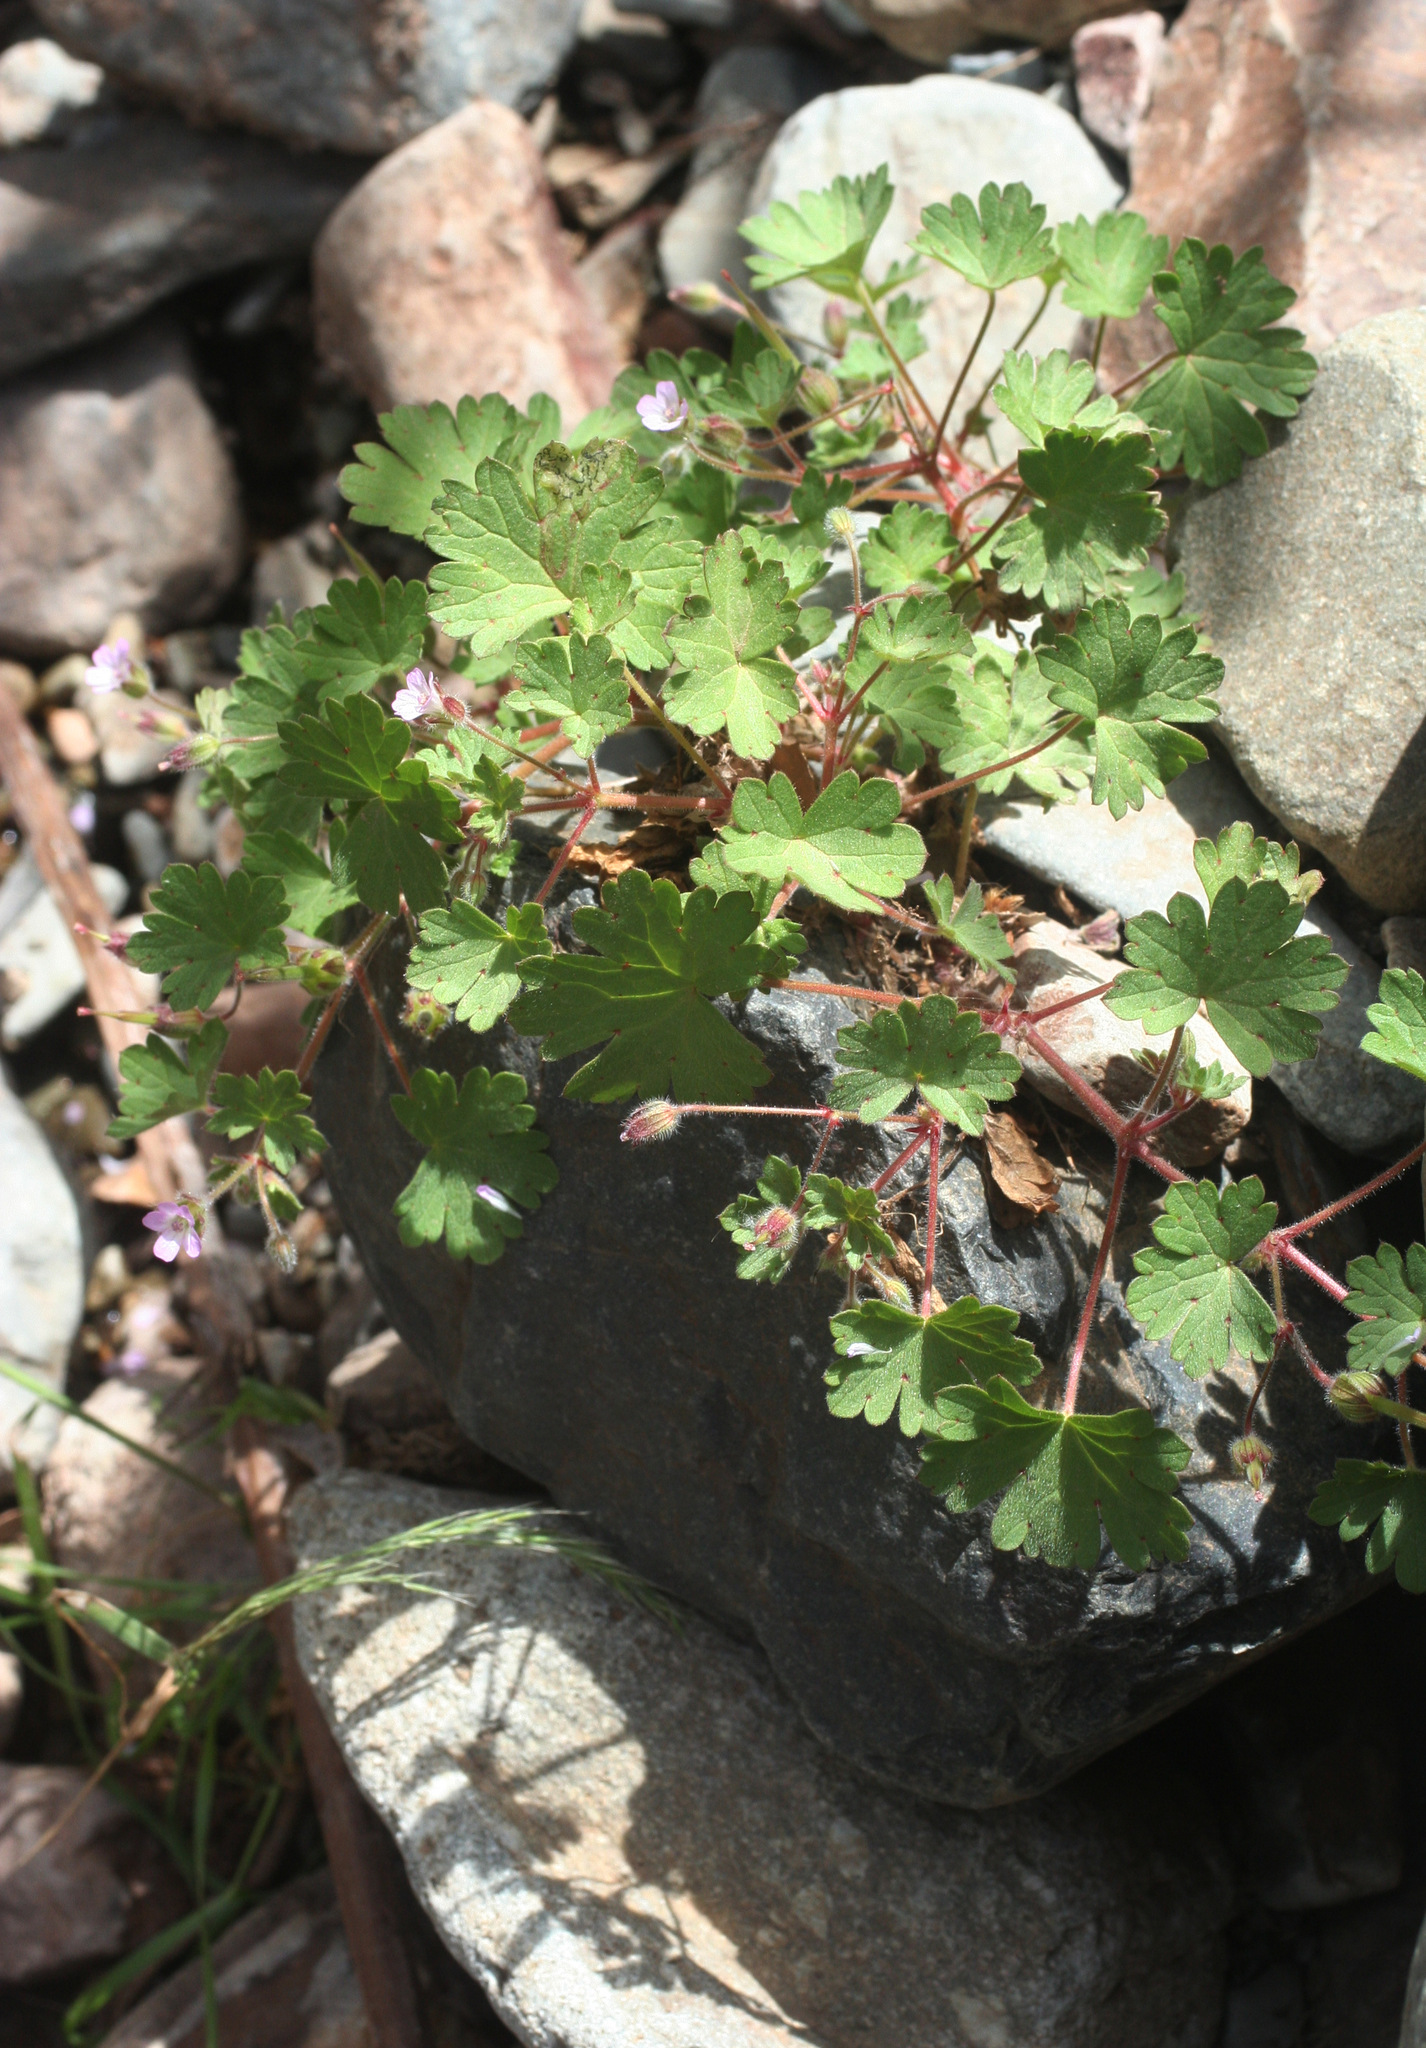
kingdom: Plantae
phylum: Tracheophyta
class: Magnoliopsida
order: Geraniales
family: Geraniaceae
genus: Geranium
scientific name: Geranium rotundifolium
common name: Round-leaved crane's-bill
